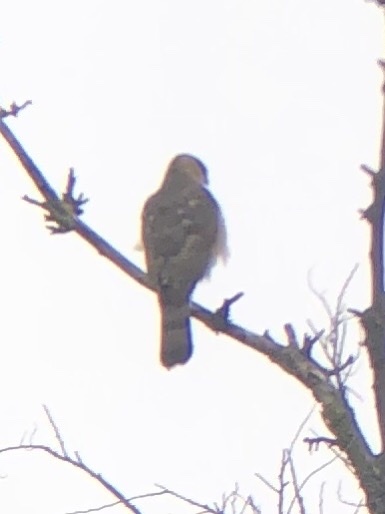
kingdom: Animalia
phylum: Chordata
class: Aves
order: Accipitriformes
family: Accipitridae
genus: Accipiter
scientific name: Accipiter cooperii
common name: Cooper's hawk
